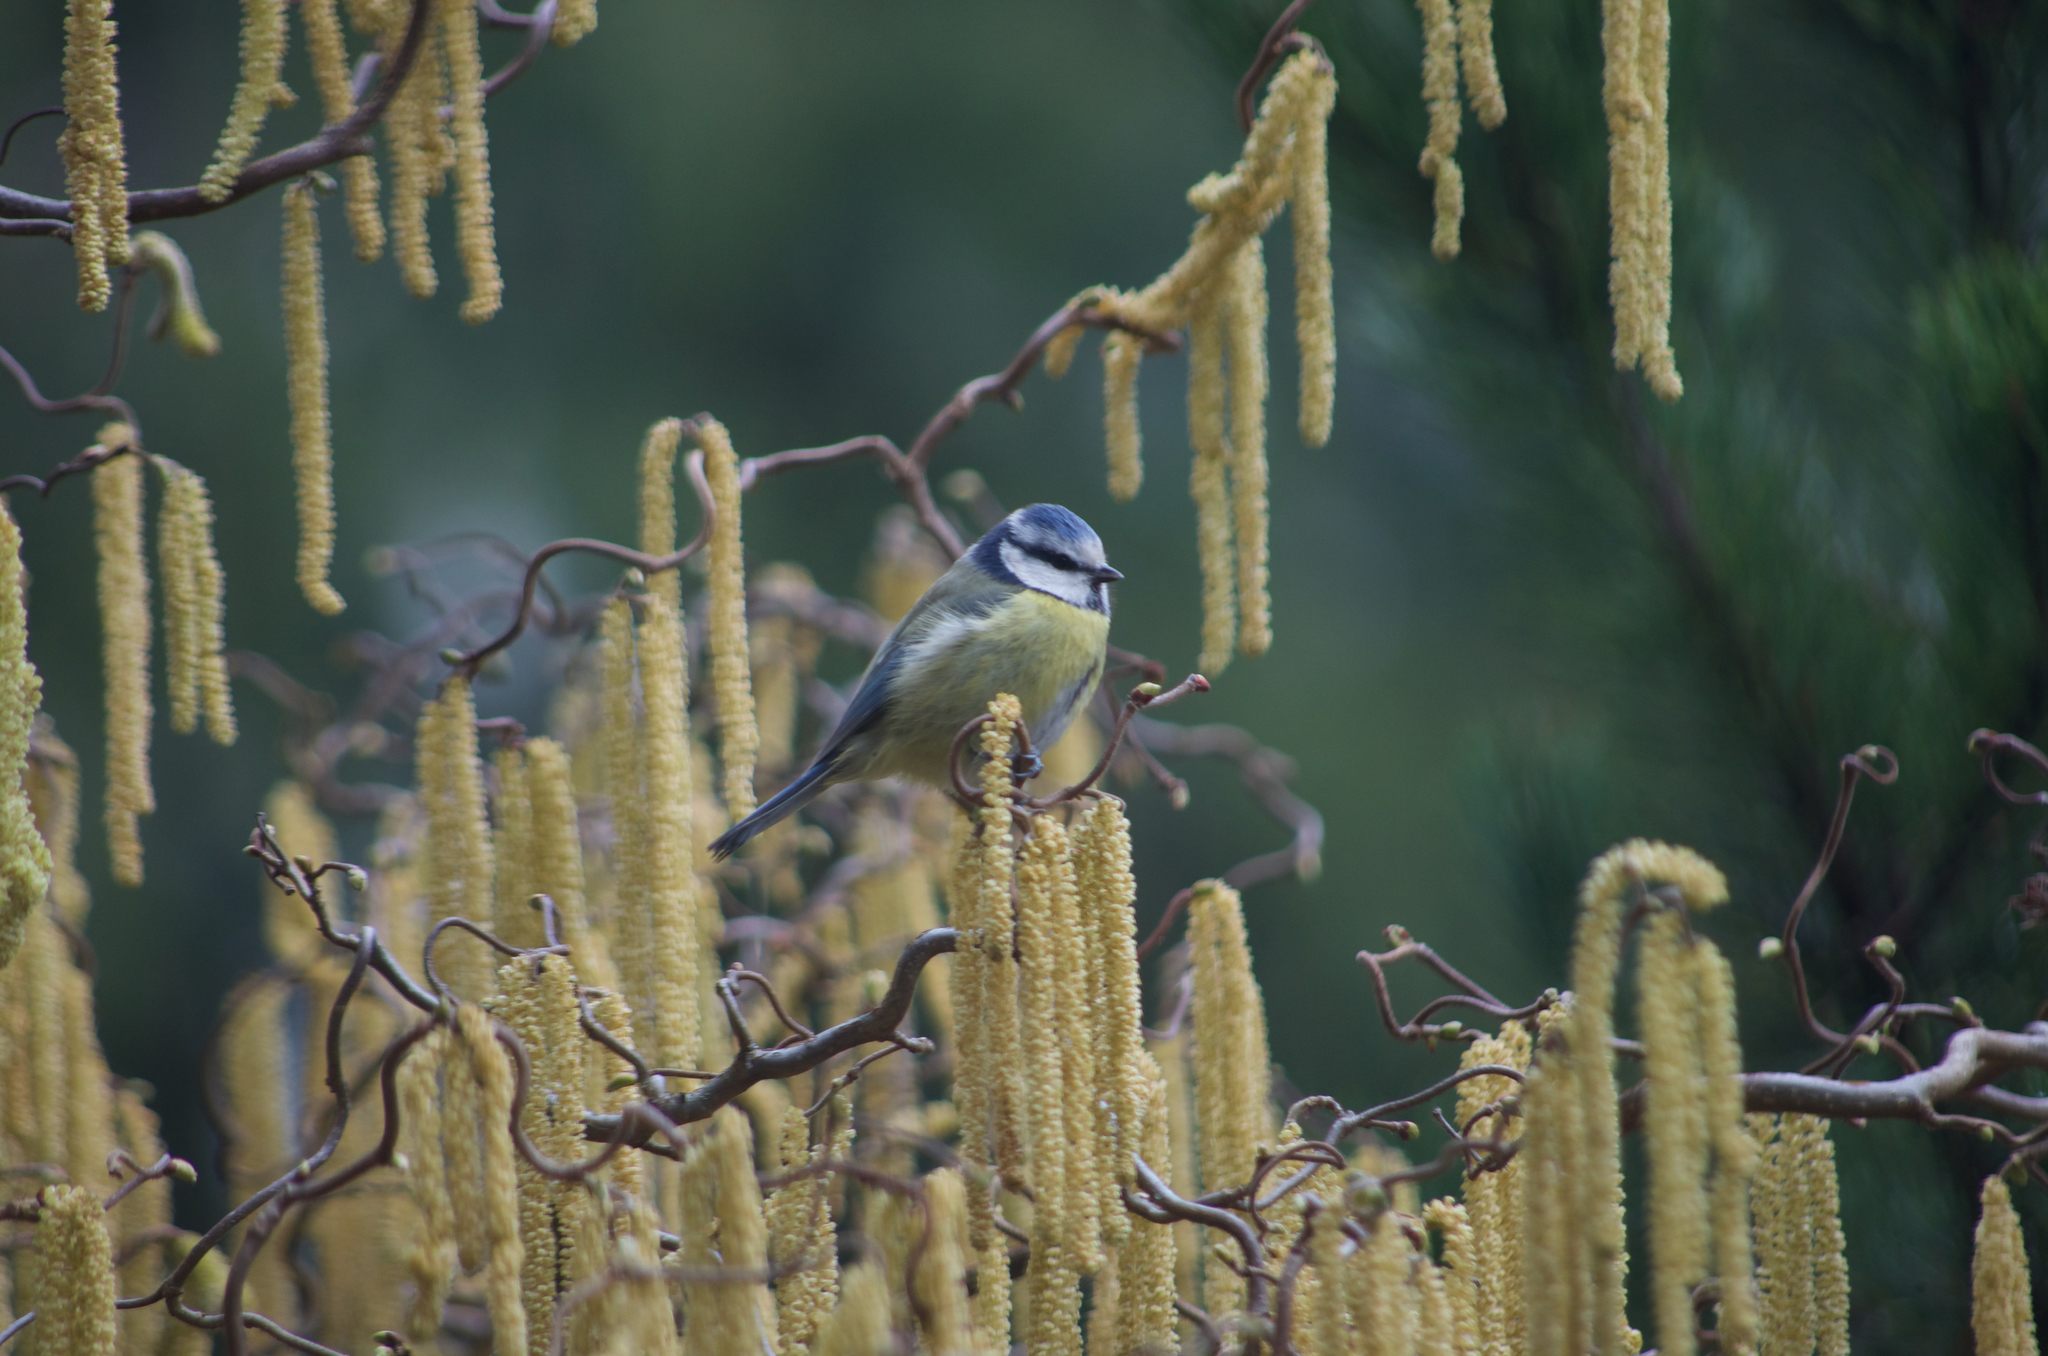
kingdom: Animalia
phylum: Chordata
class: Aves
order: Passeriformes
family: Paridae
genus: Cyanistes
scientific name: Cyanistes caeruleus
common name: Eurasian blue tit
